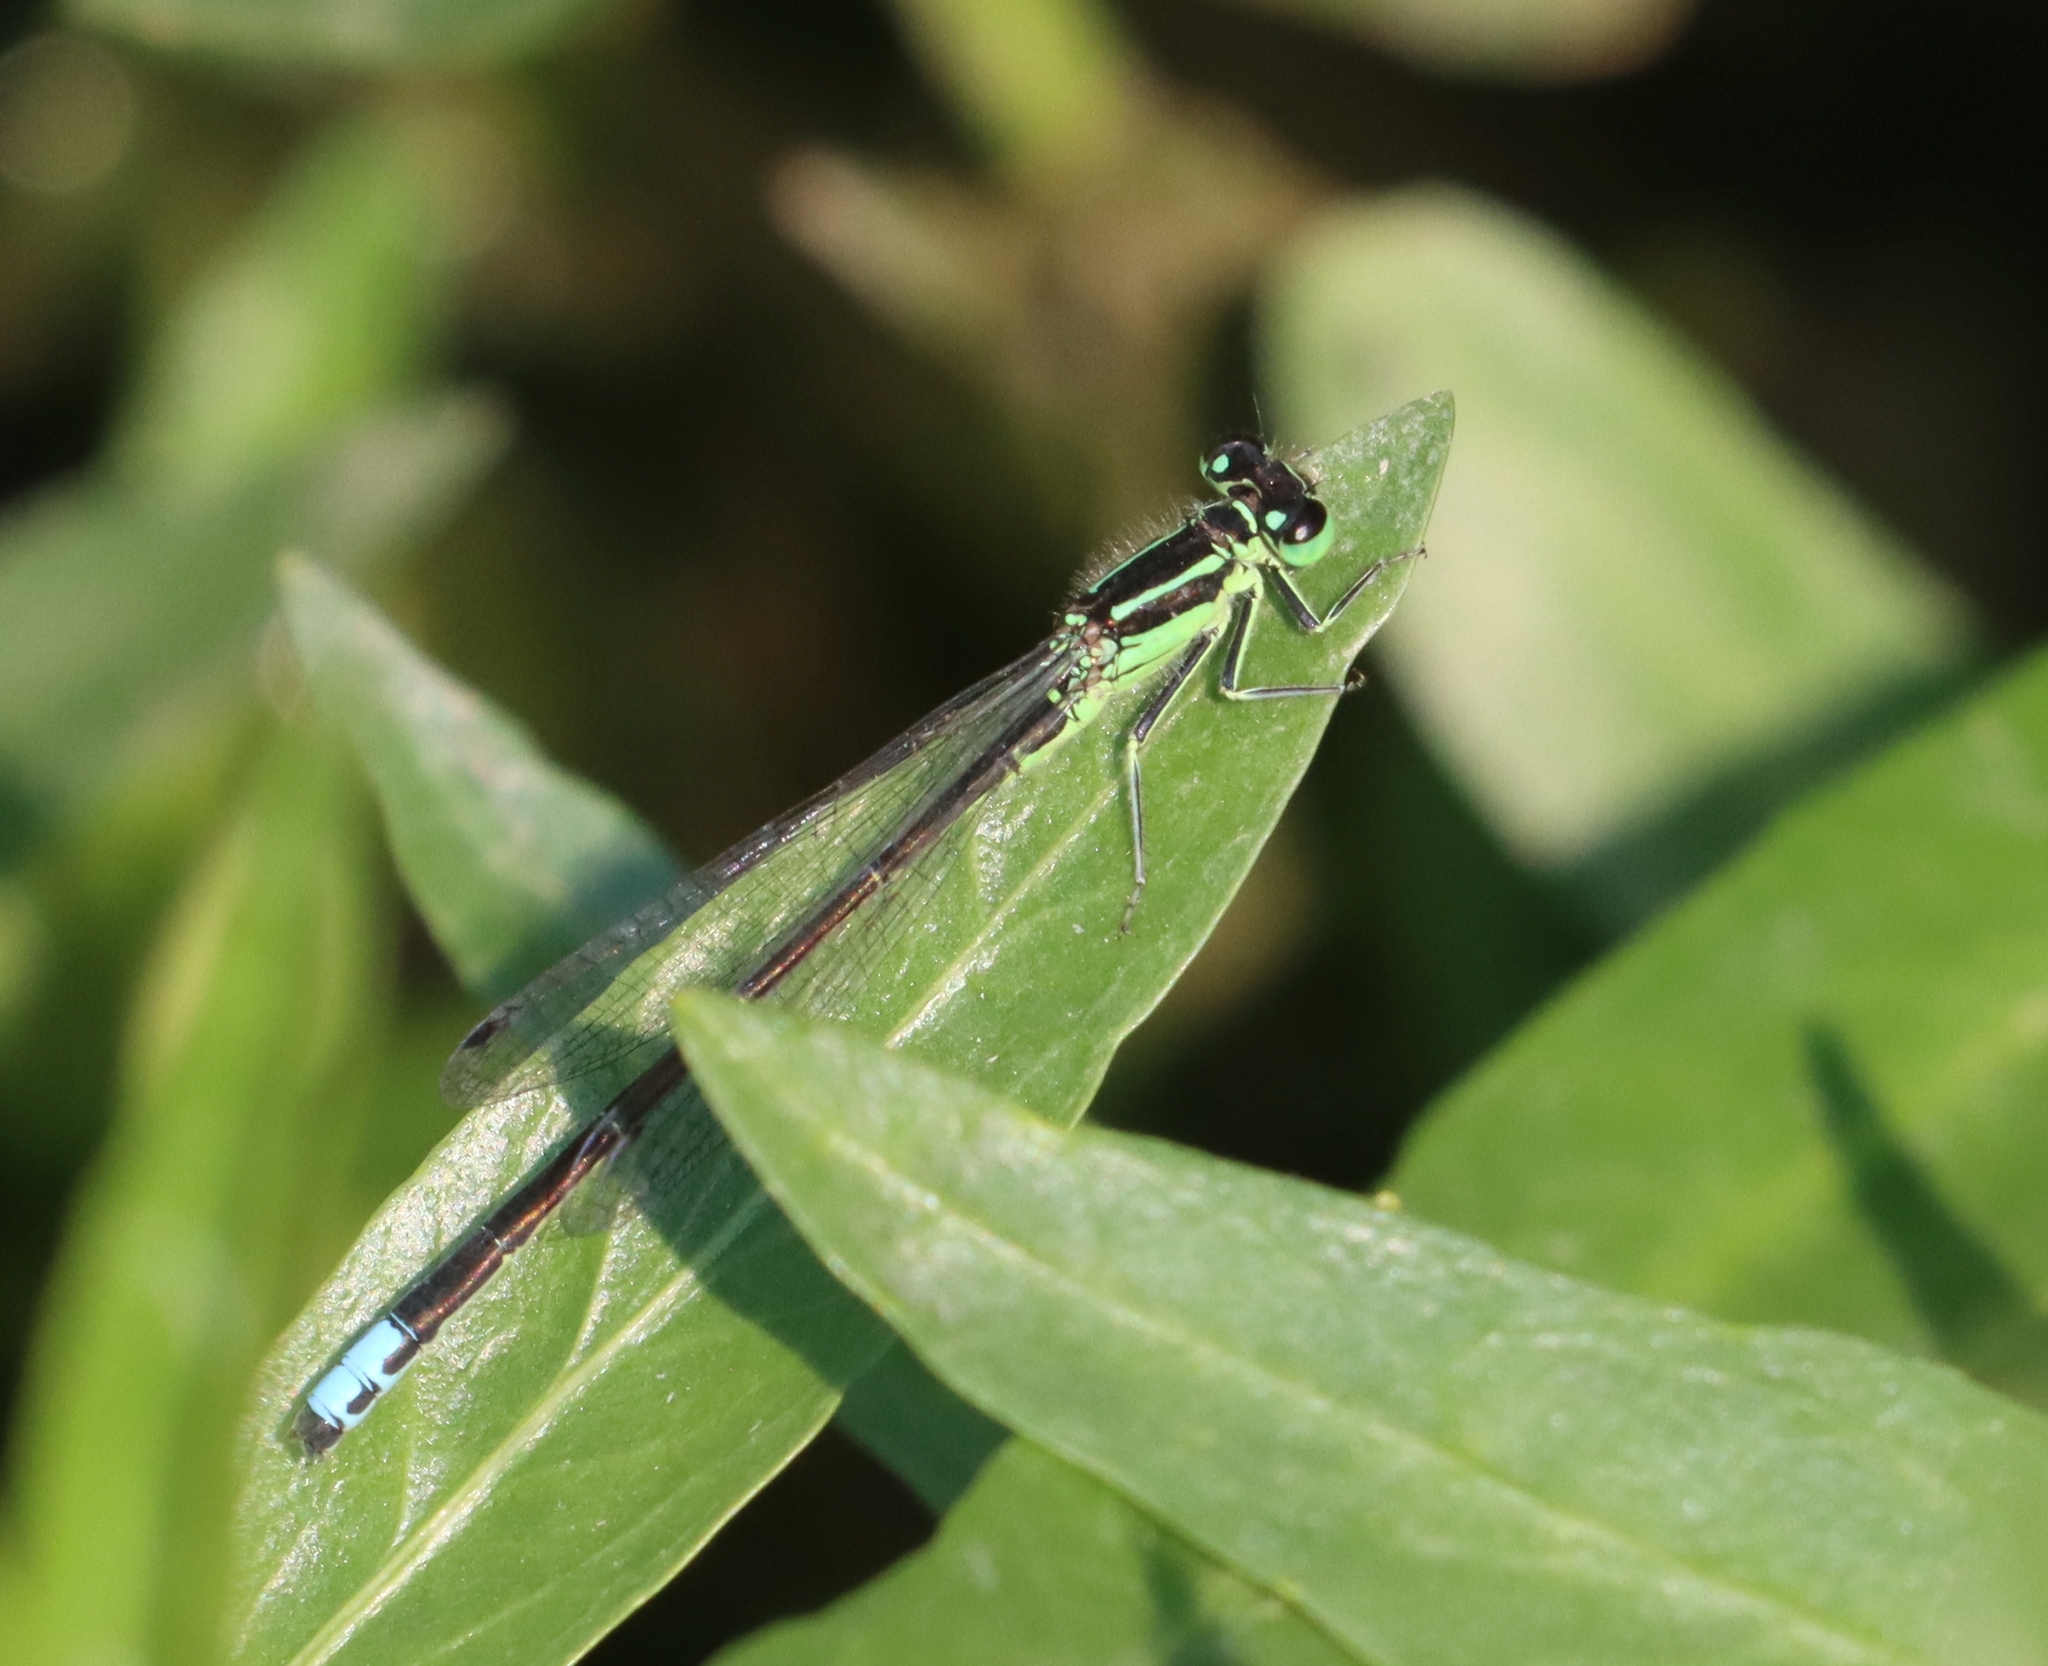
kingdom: Animalia
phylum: Arthropoda
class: Insecta
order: Odonata
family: Coenagrionidae
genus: Ischnura
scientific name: Ischnura verticalis
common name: Eastern forktail
